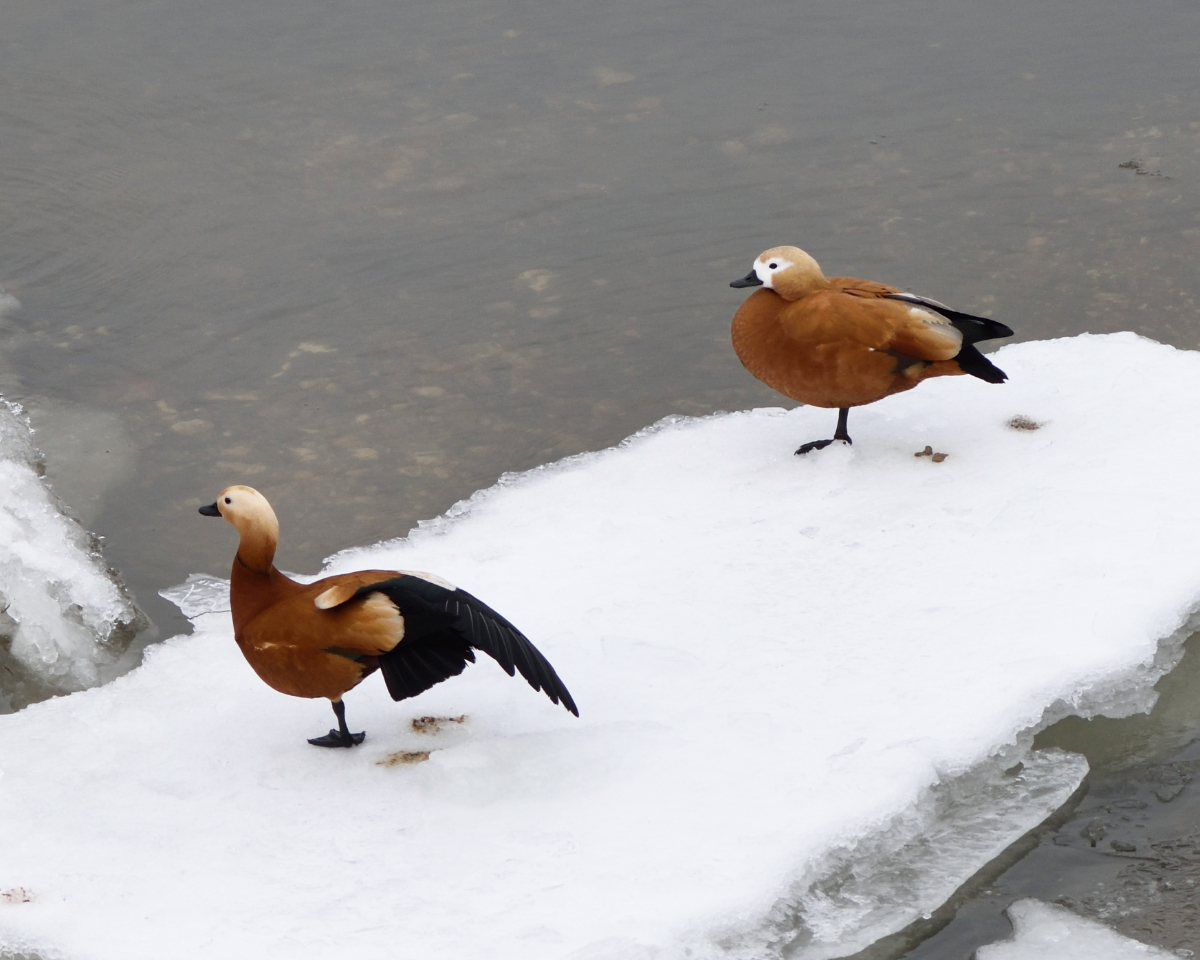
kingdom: Animalia
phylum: Chordata
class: Aves
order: Anseriformes
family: Anatidae
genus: Tadorna
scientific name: Tadorna ferruginea
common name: Ruddy shelduck
